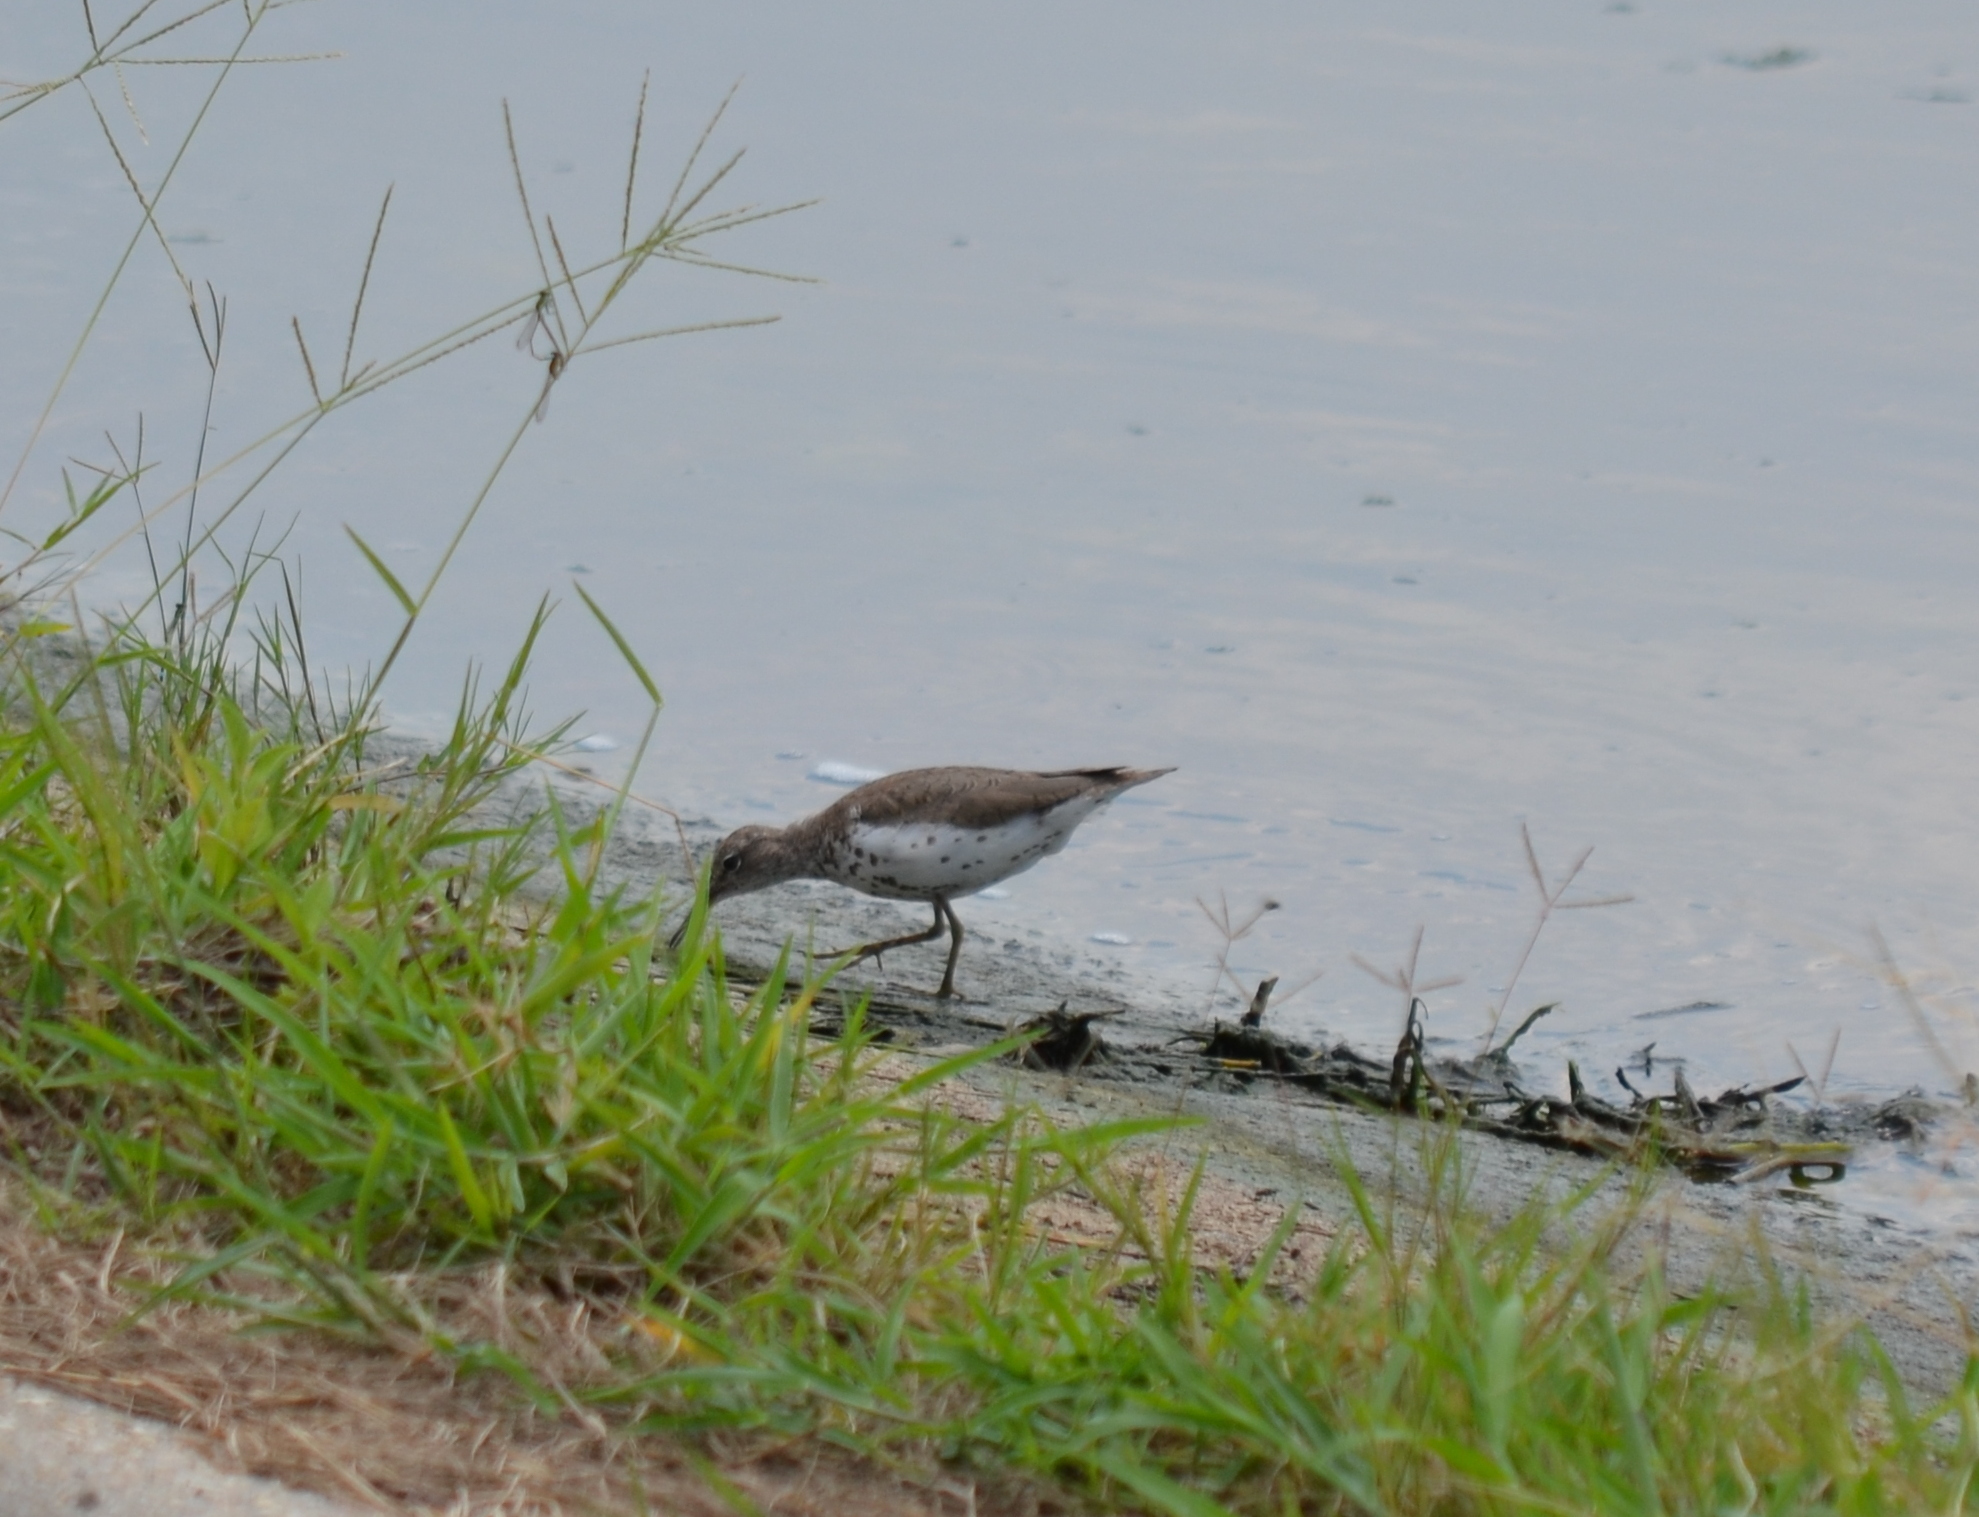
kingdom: Animalia
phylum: Chordata
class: Aves
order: Charadriiformes
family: Scolopacidae
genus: Actitis
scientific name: Actitis macularius
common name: Spotted sandpiper
